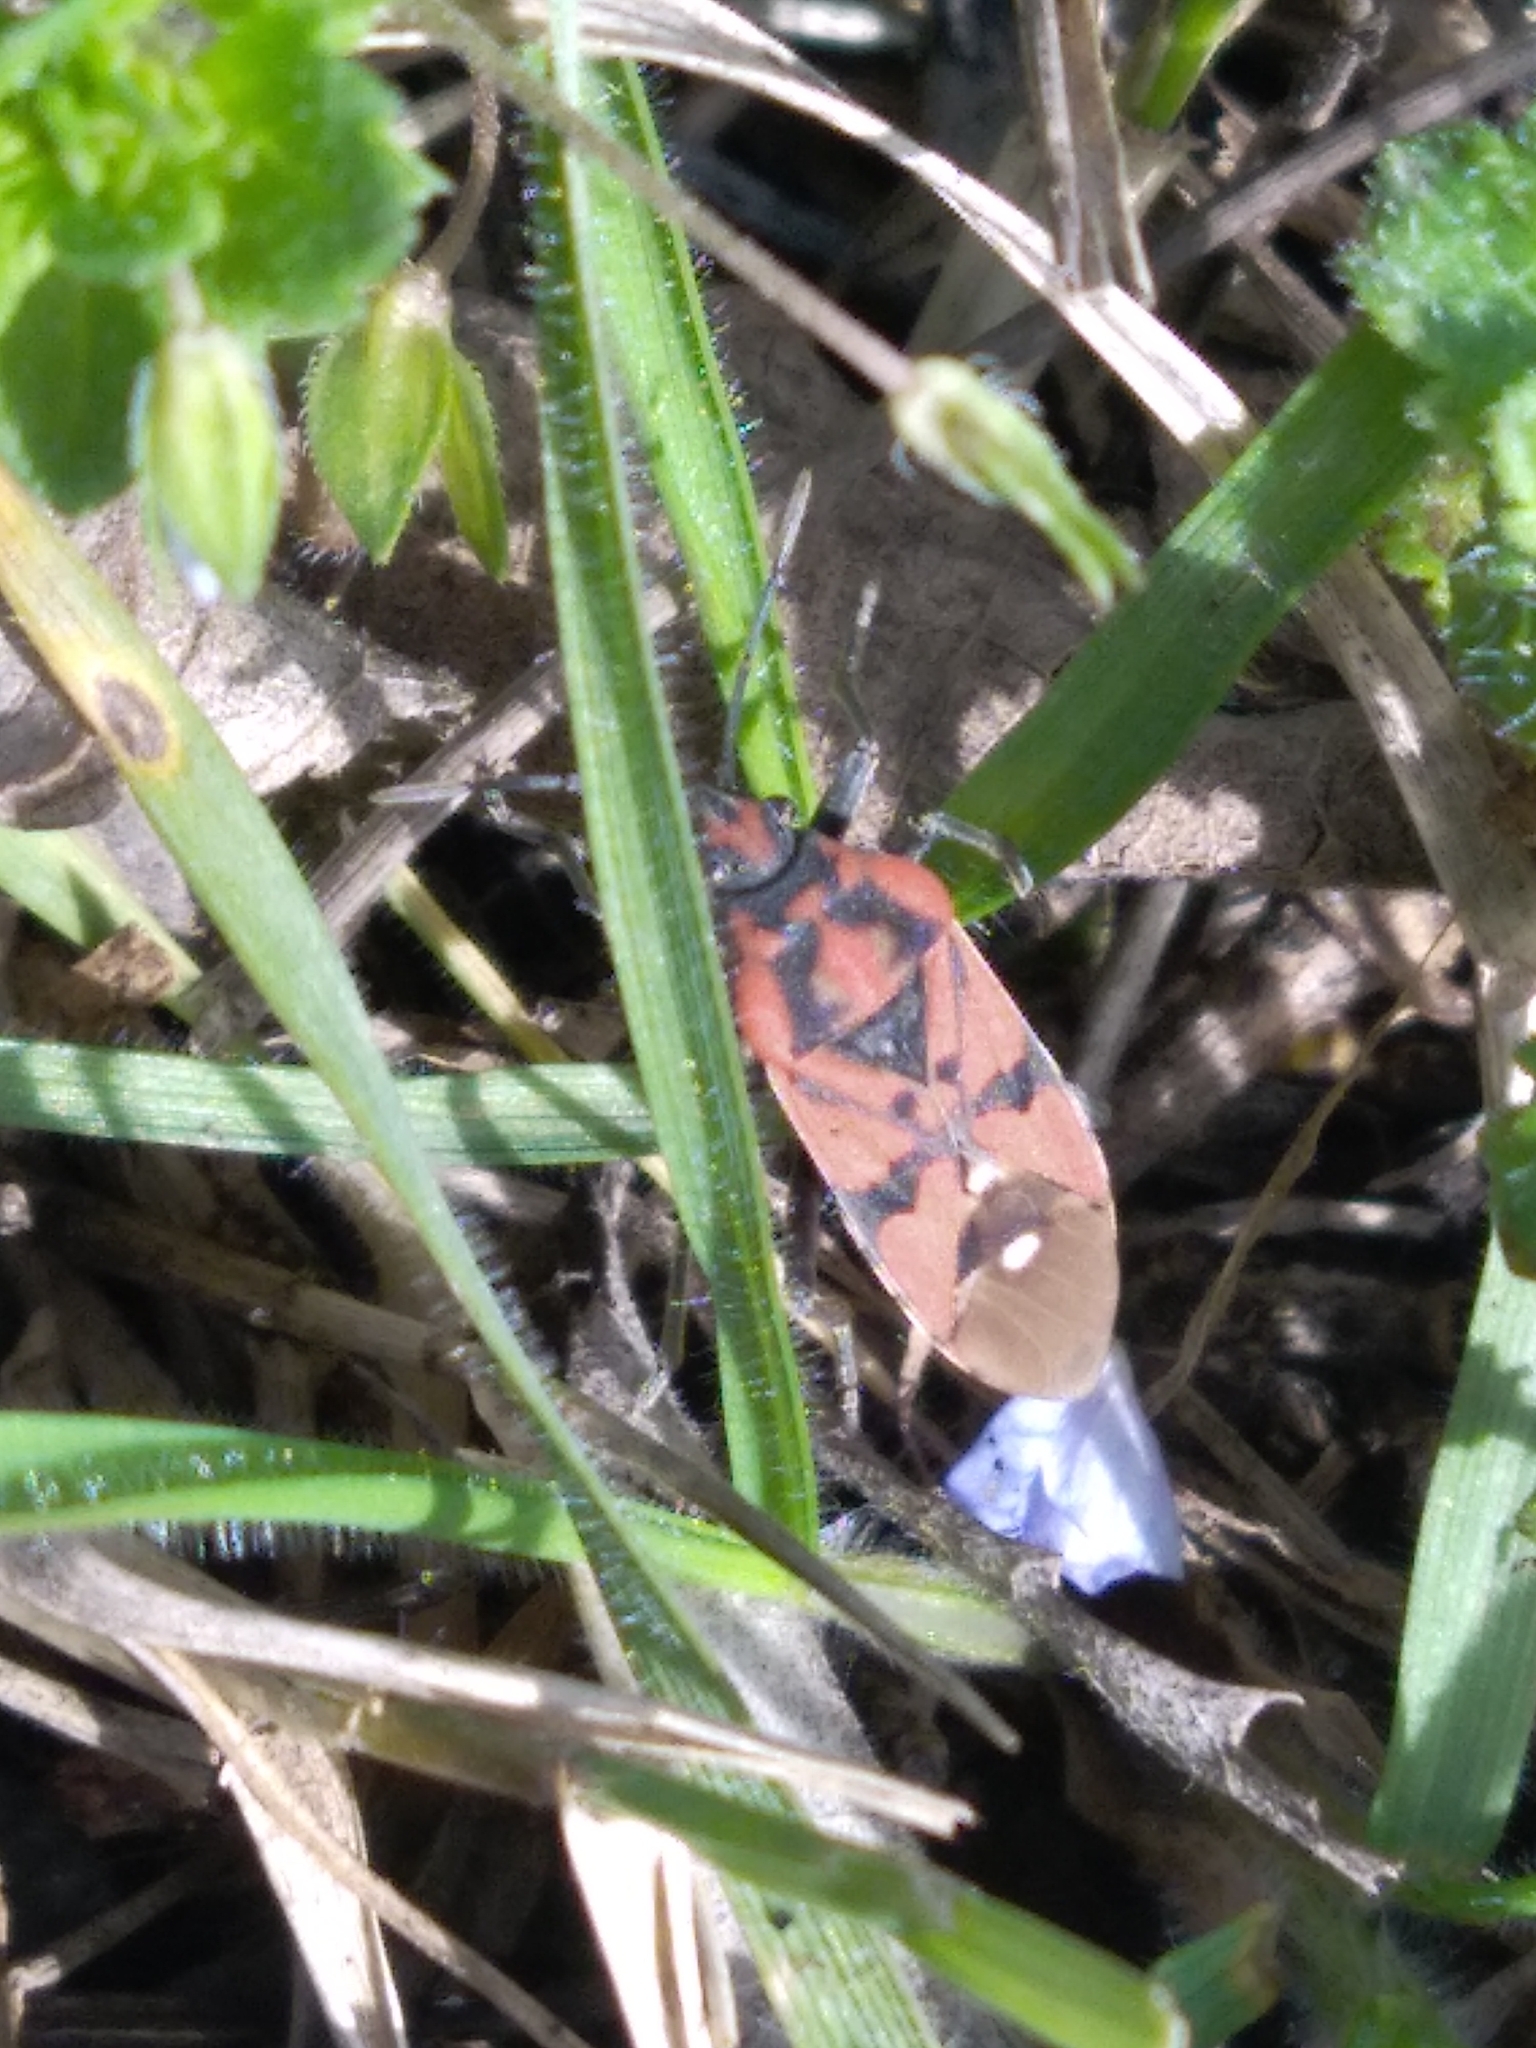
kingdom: Animalia
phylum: Arthropoda
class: Insecta
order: Hemiptera
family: Lygaeidae
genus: Spilostethus
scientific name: Spilostethus pandurus
